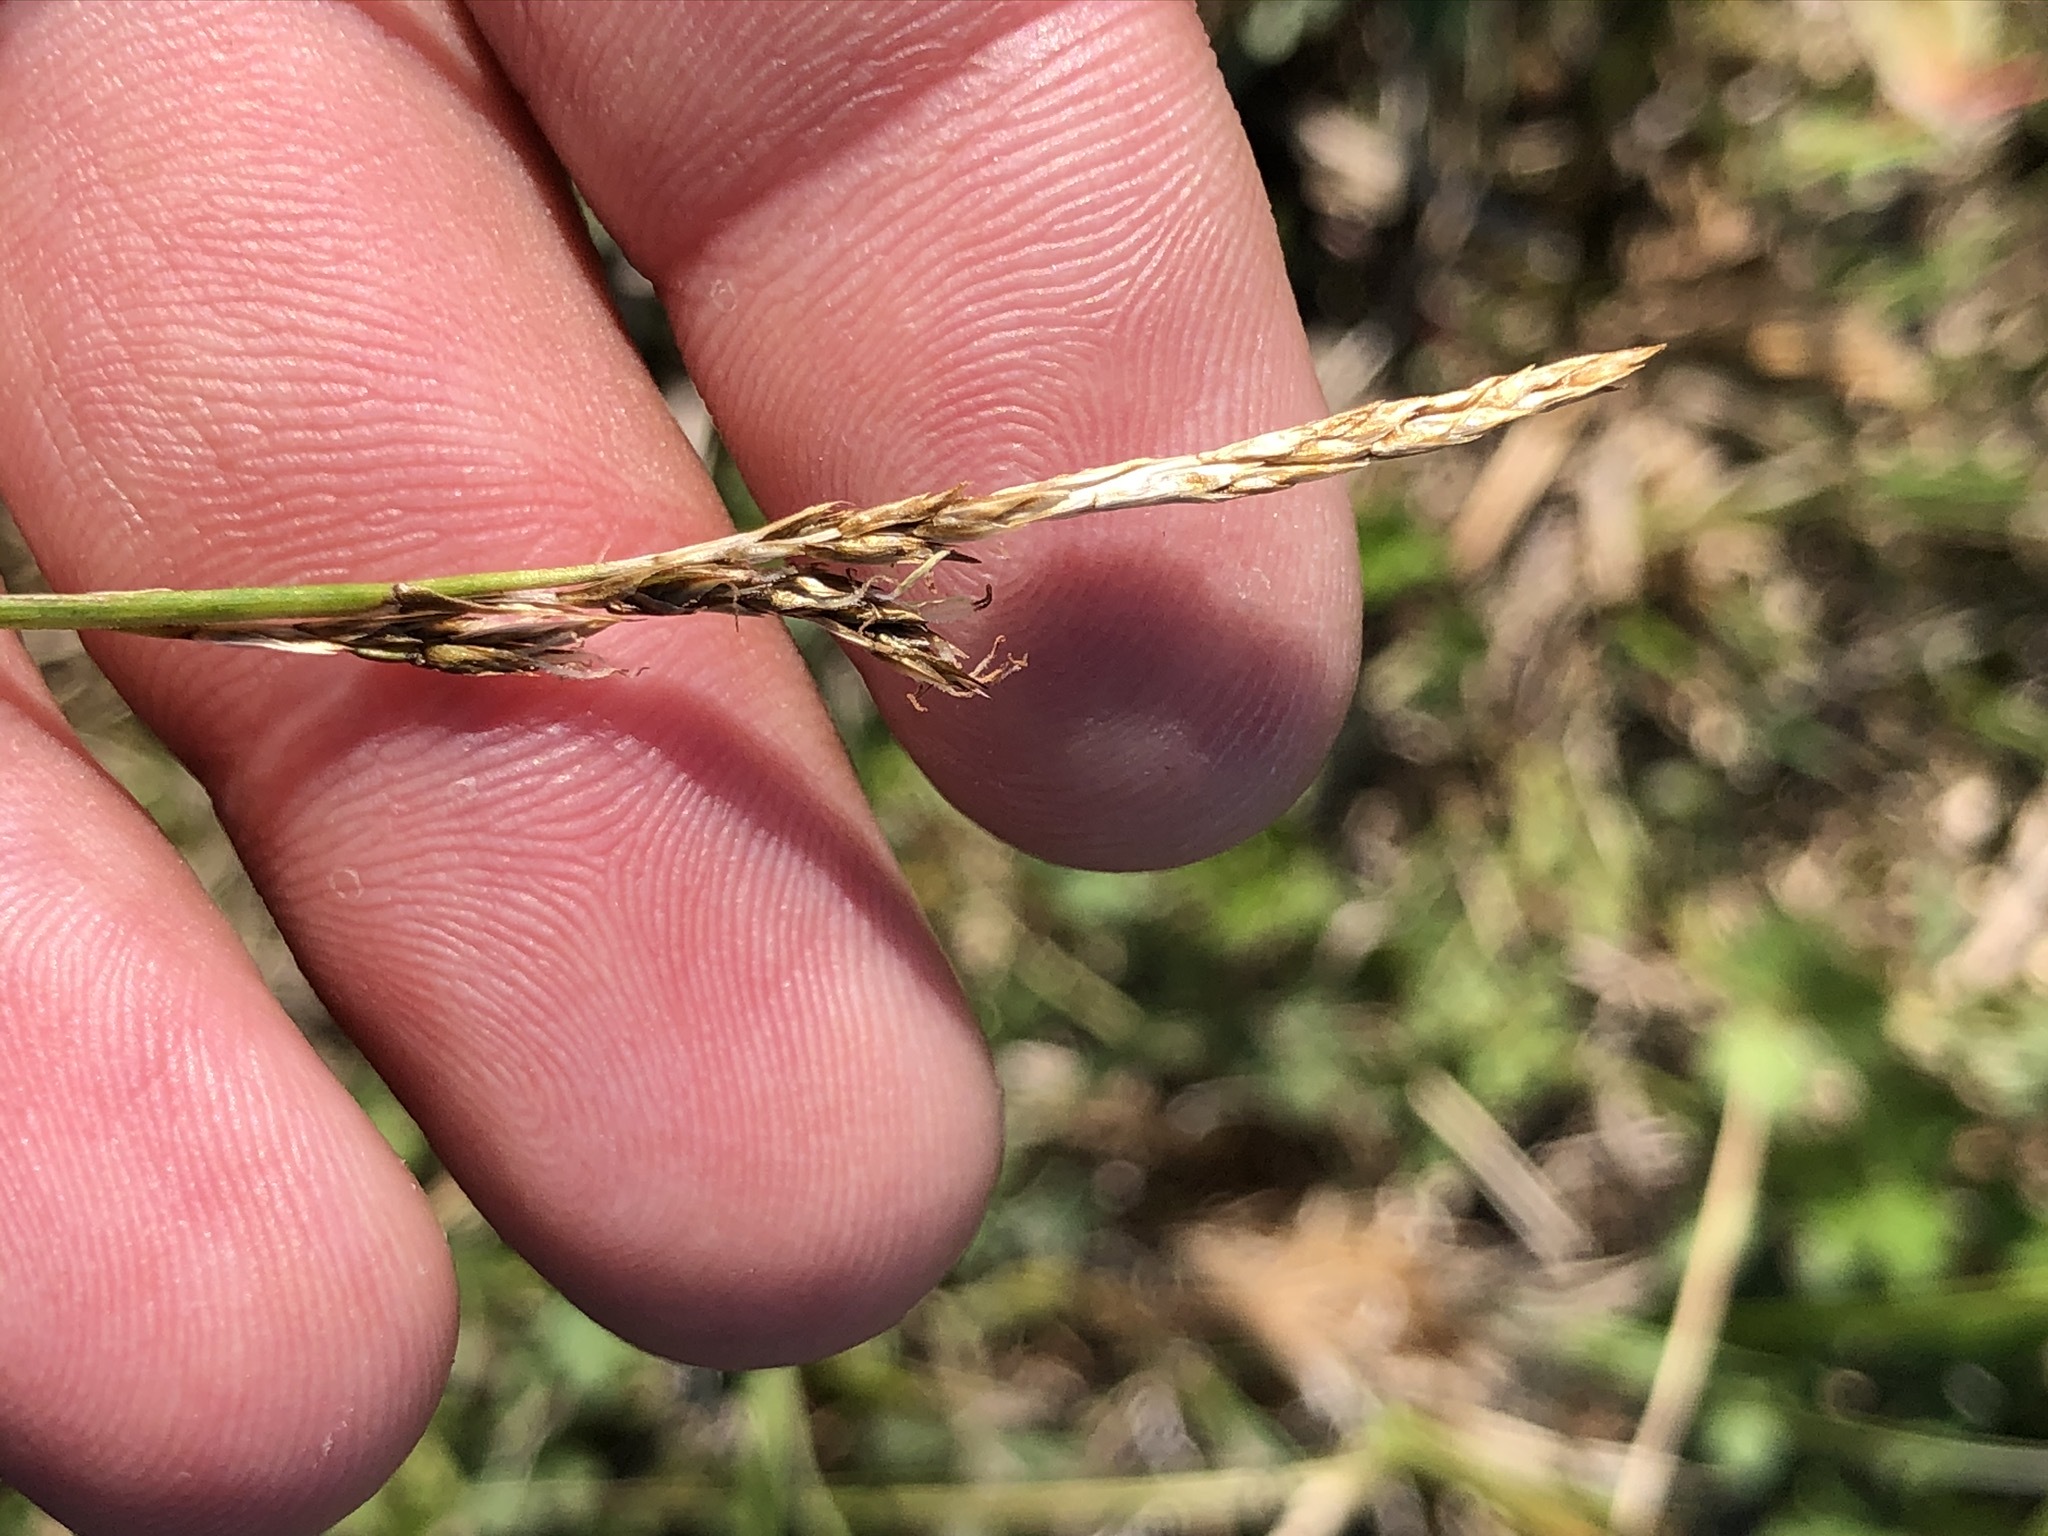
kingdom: Plantae
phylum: Tracheophyta
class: Liliopsida
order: Poales
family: Cyperaceae
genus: Carex
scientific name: Carex paniculata
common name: Greater tussock-sedge
